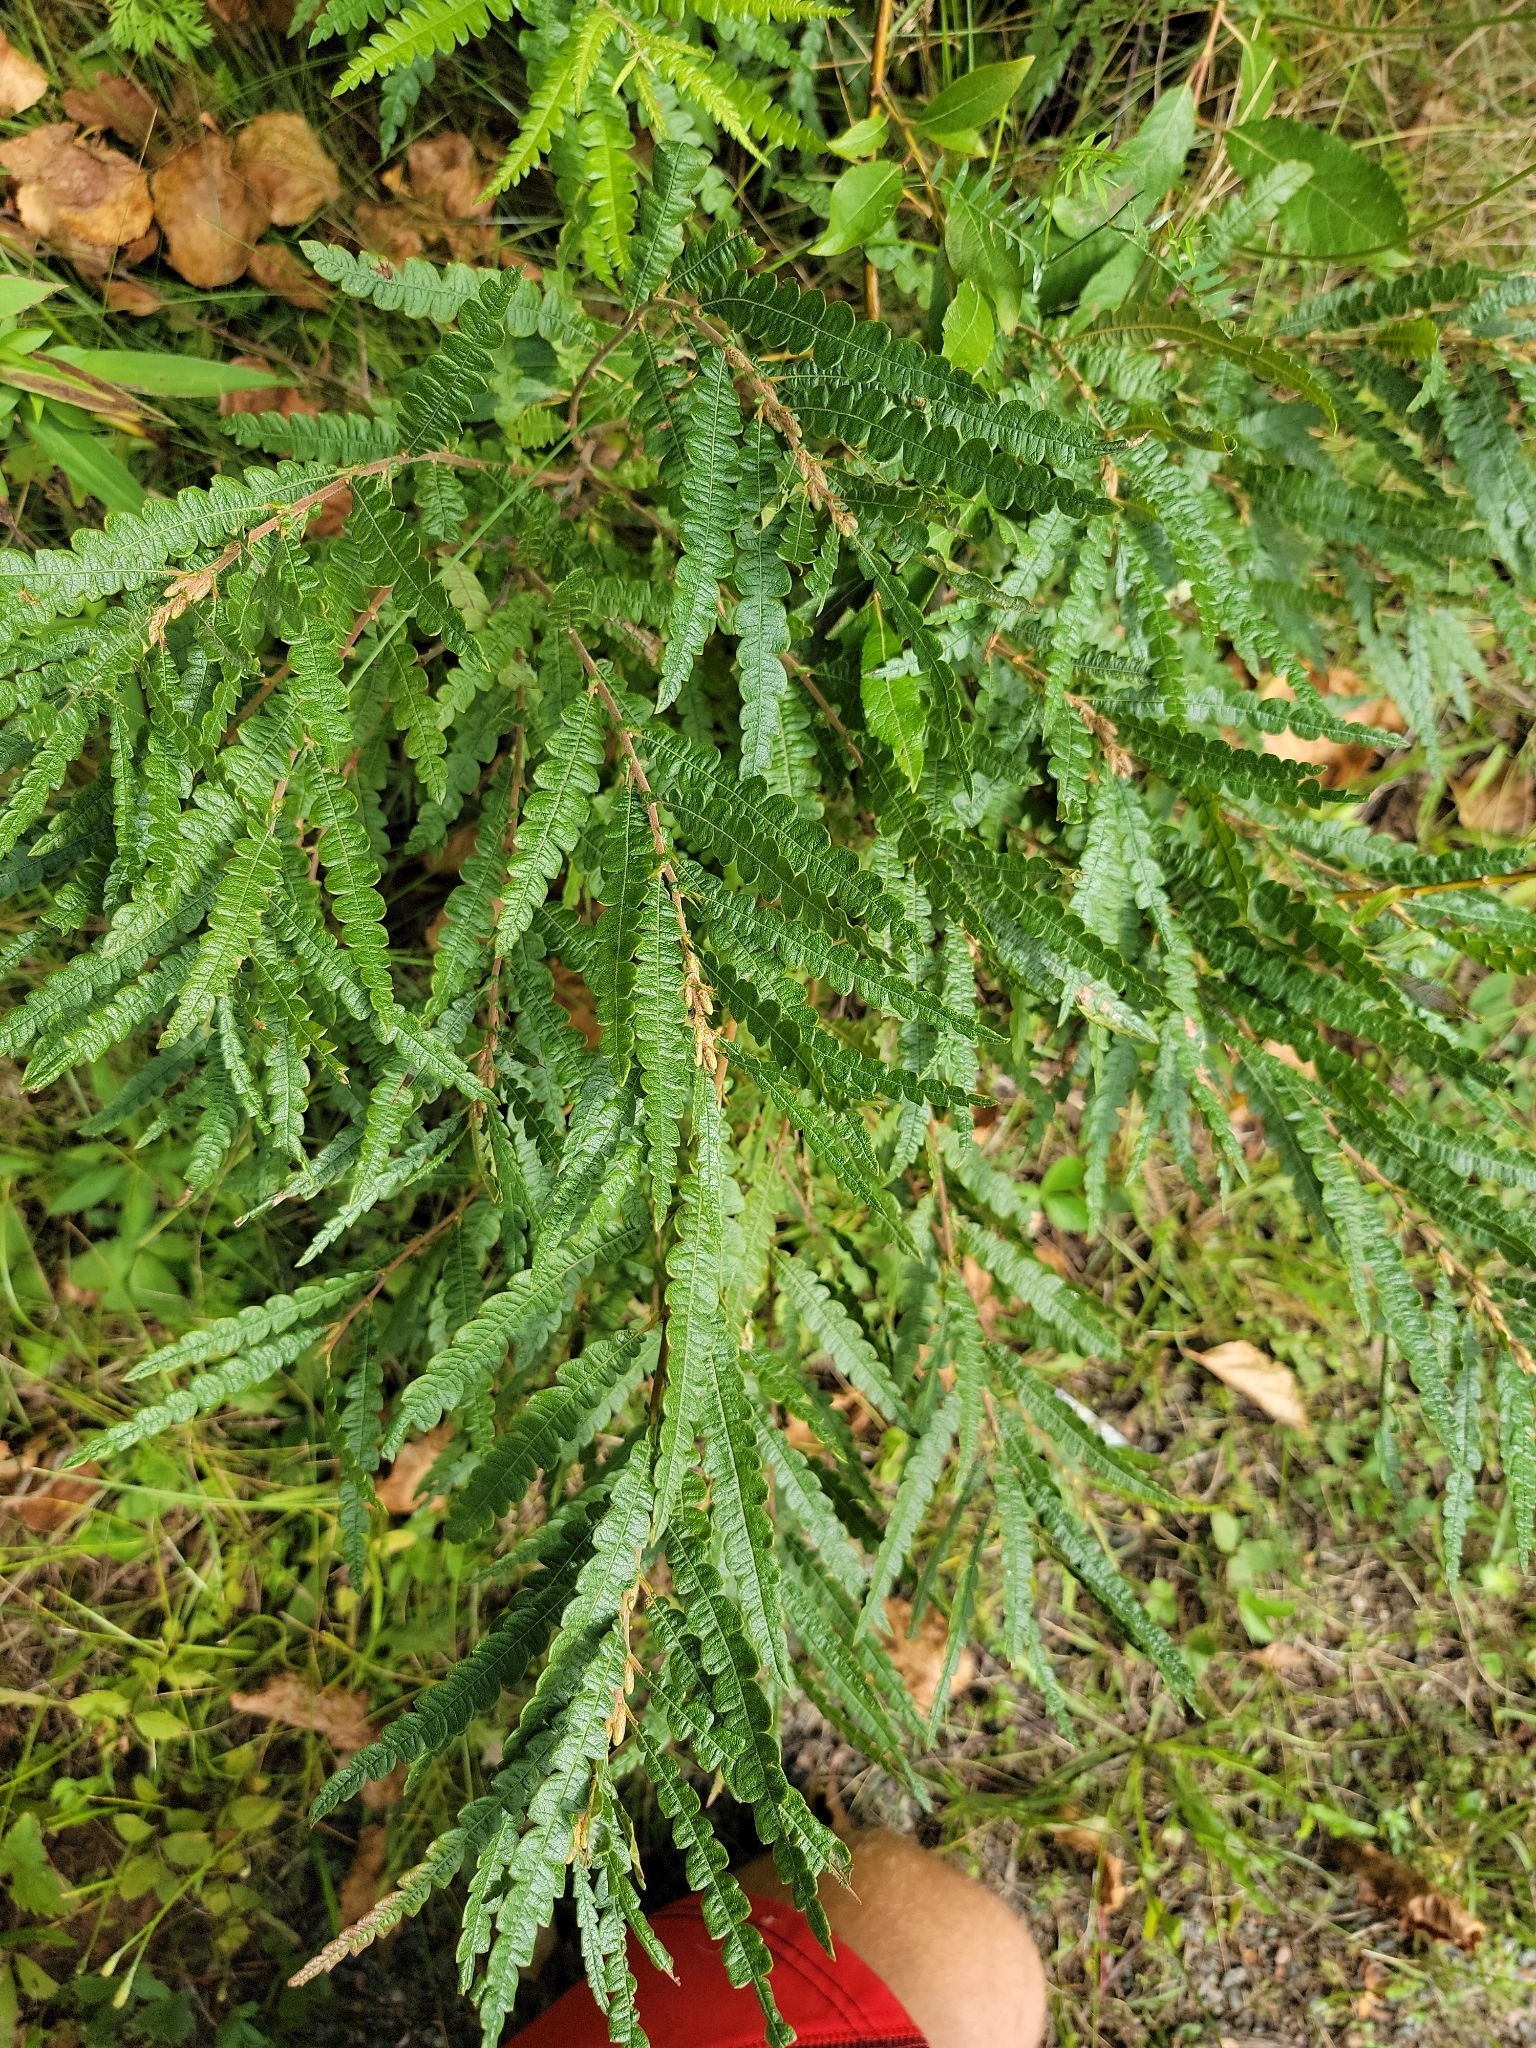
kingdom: Plantae
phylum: Tracheophyta
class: Magnoliopsida
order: Fagales
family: Myricaceae
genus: Comptonia
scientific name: Comptonia peregrina
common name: Sweet-fern
